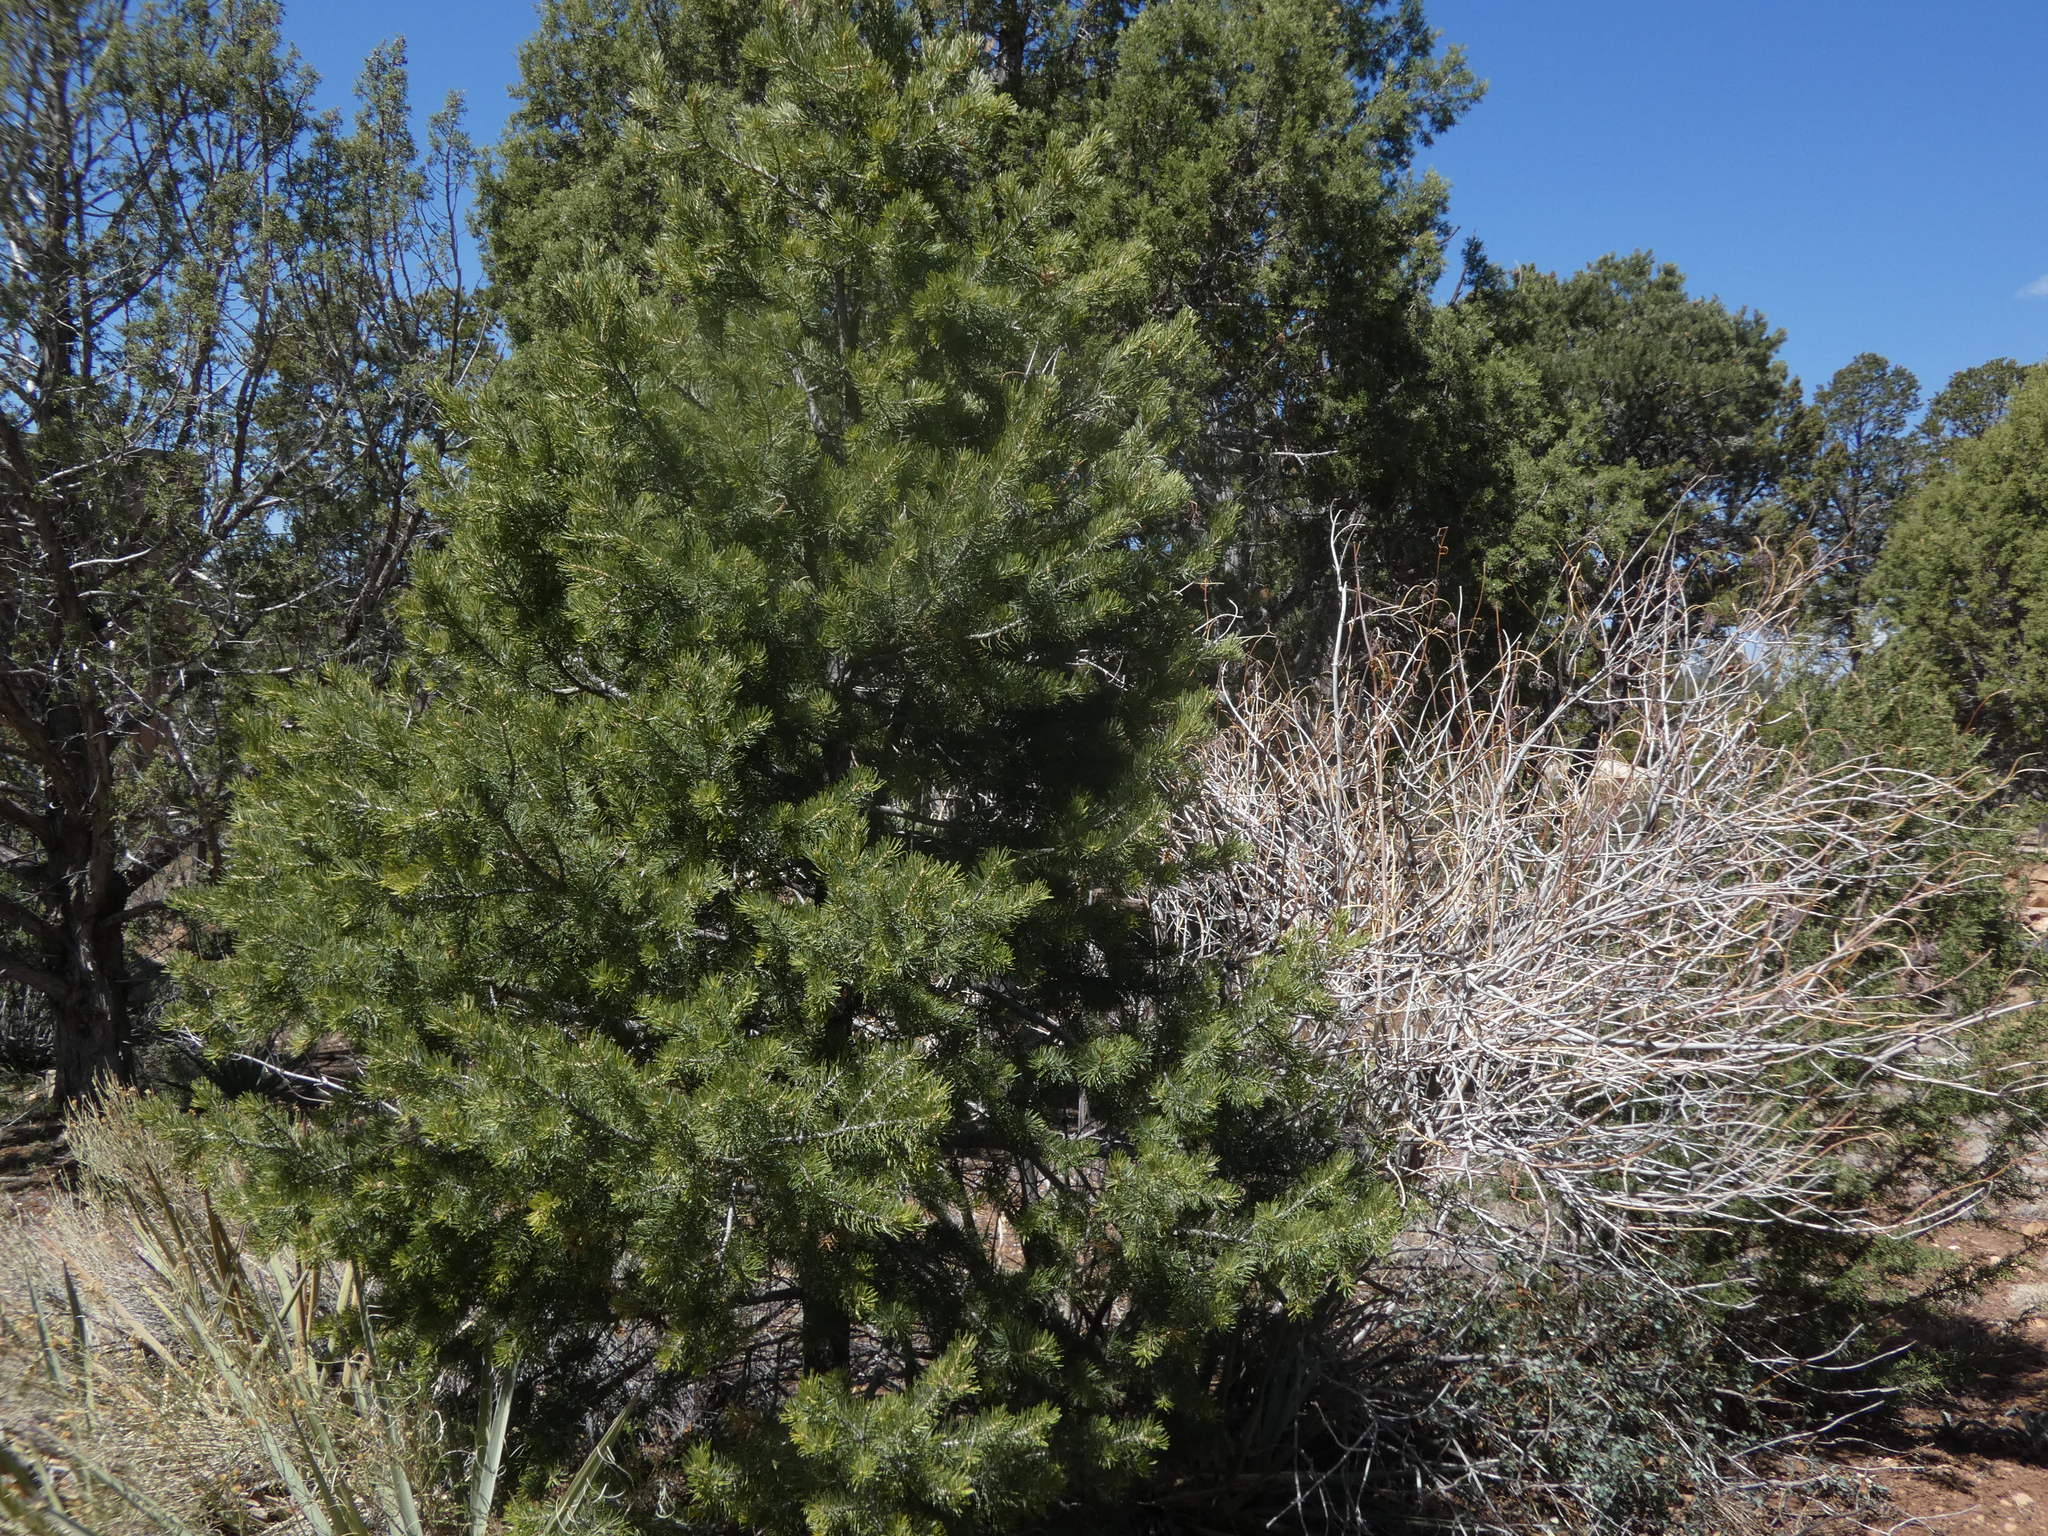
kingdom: Plantae
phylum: Tracheophyta
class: Pinopsida
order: Pinales
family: Pinaceae
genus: Pinus
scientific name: Pinus edulis
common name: Colorado pinyon
